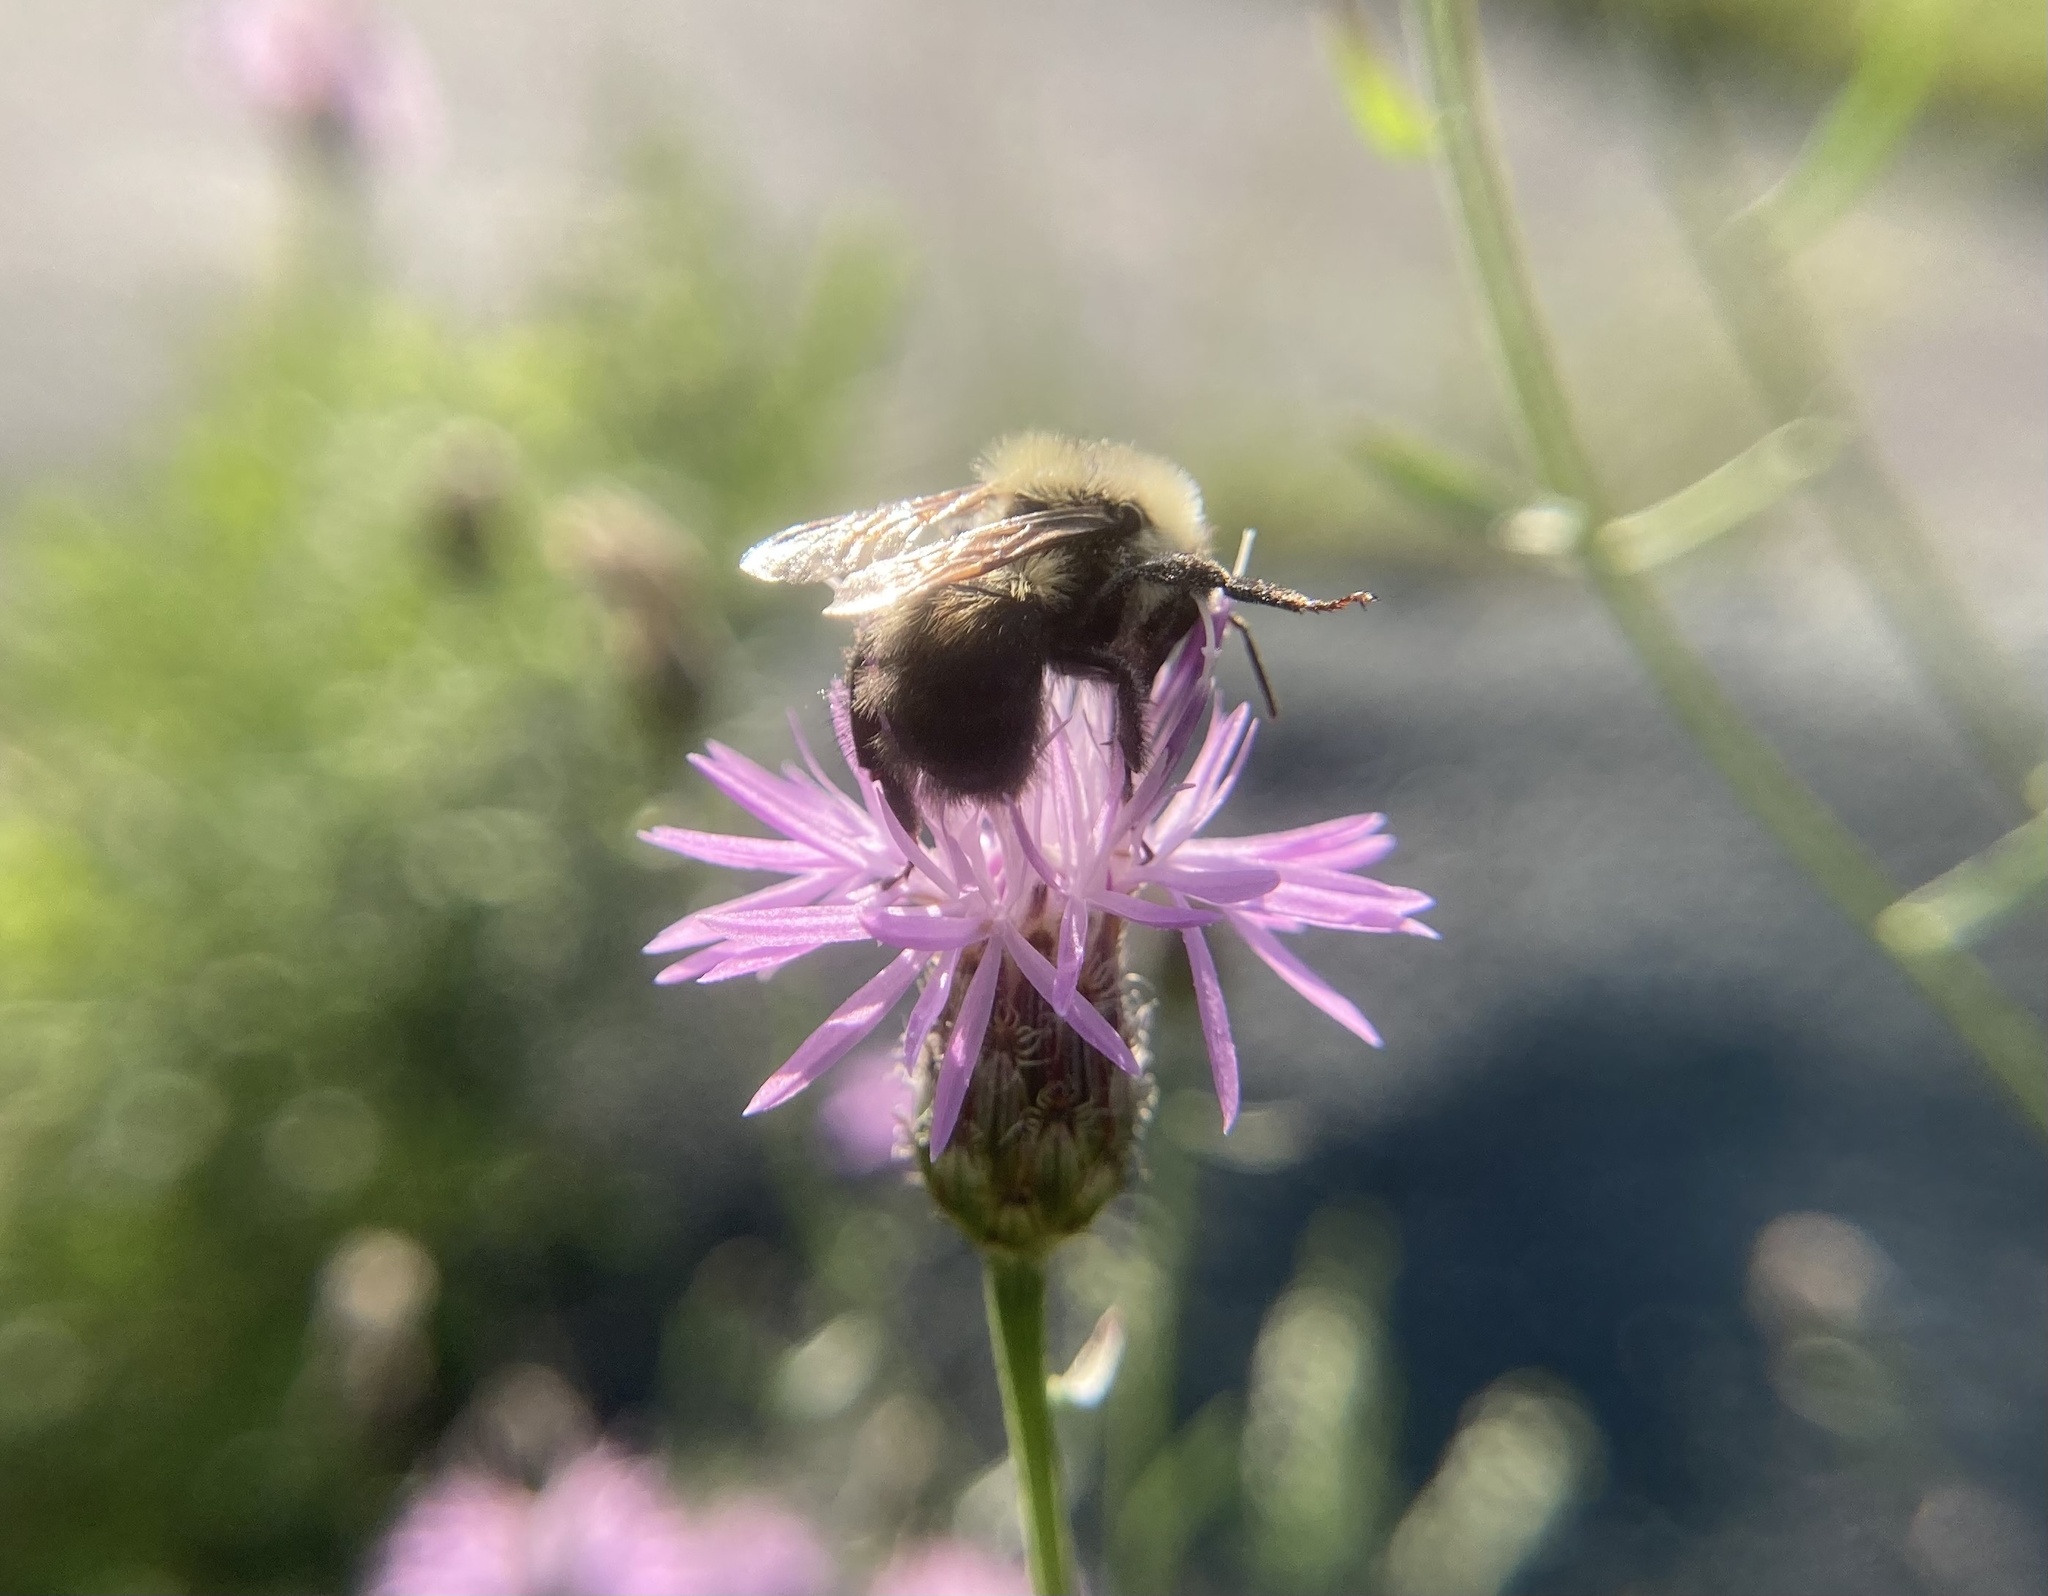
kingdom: Animalia
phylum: Arthropoda
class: Insecta
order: Hymenoptera
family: Apidae
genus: Bombus
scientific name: Bombus bimaculatus
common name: Two-spotted bumble bee
